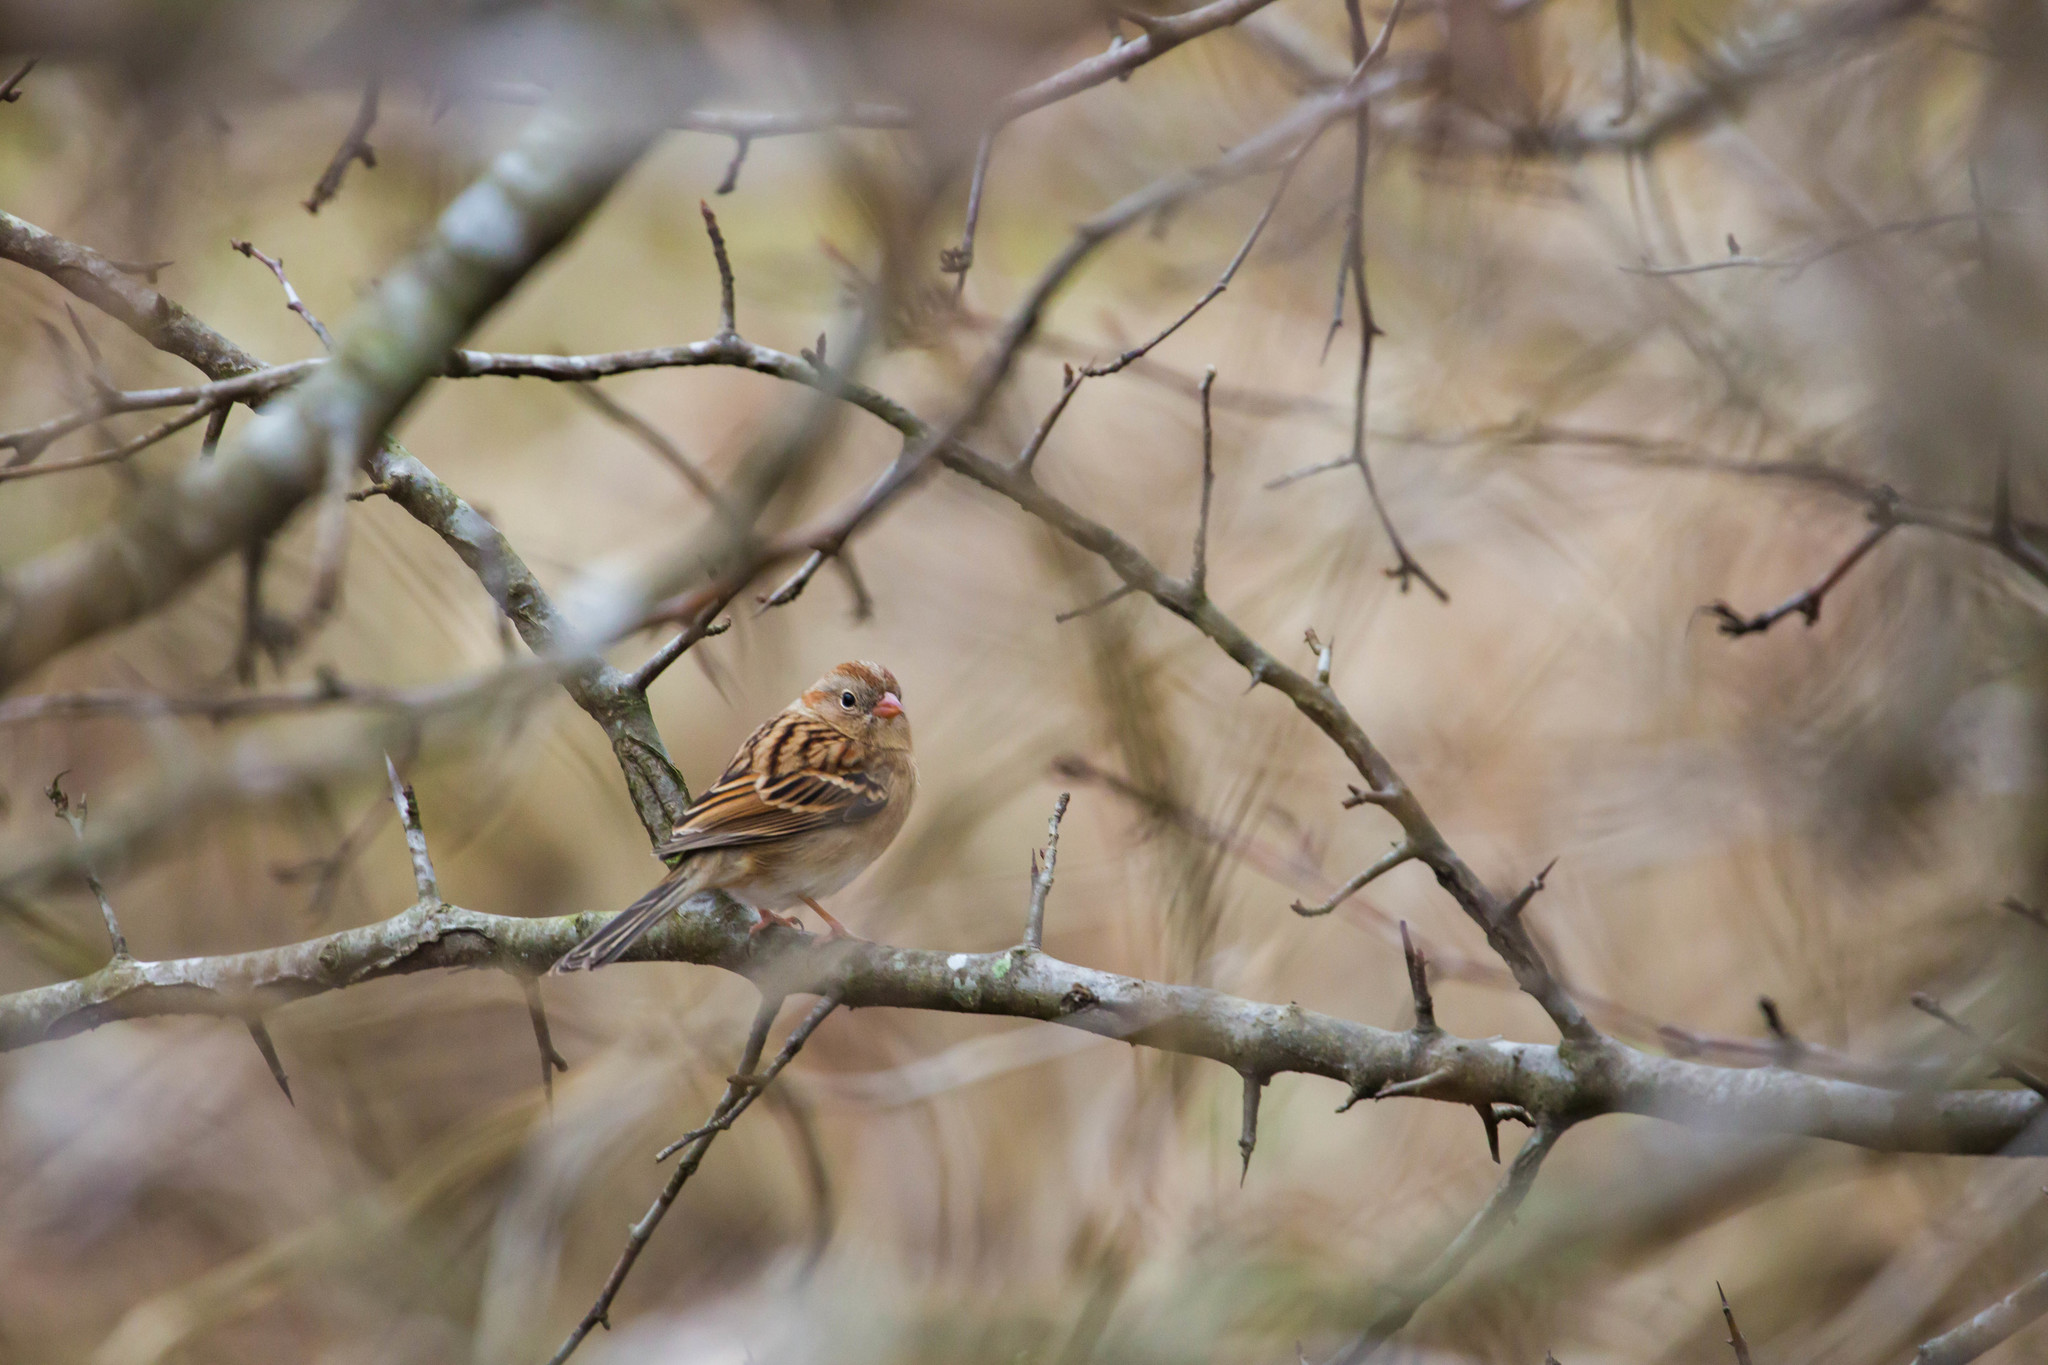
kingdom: Animalia
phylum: Chordata
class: Aves
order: Passeriformes
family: Passerellidae
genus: Spizella
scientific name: Spizella pusilla
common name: Field sparrow
